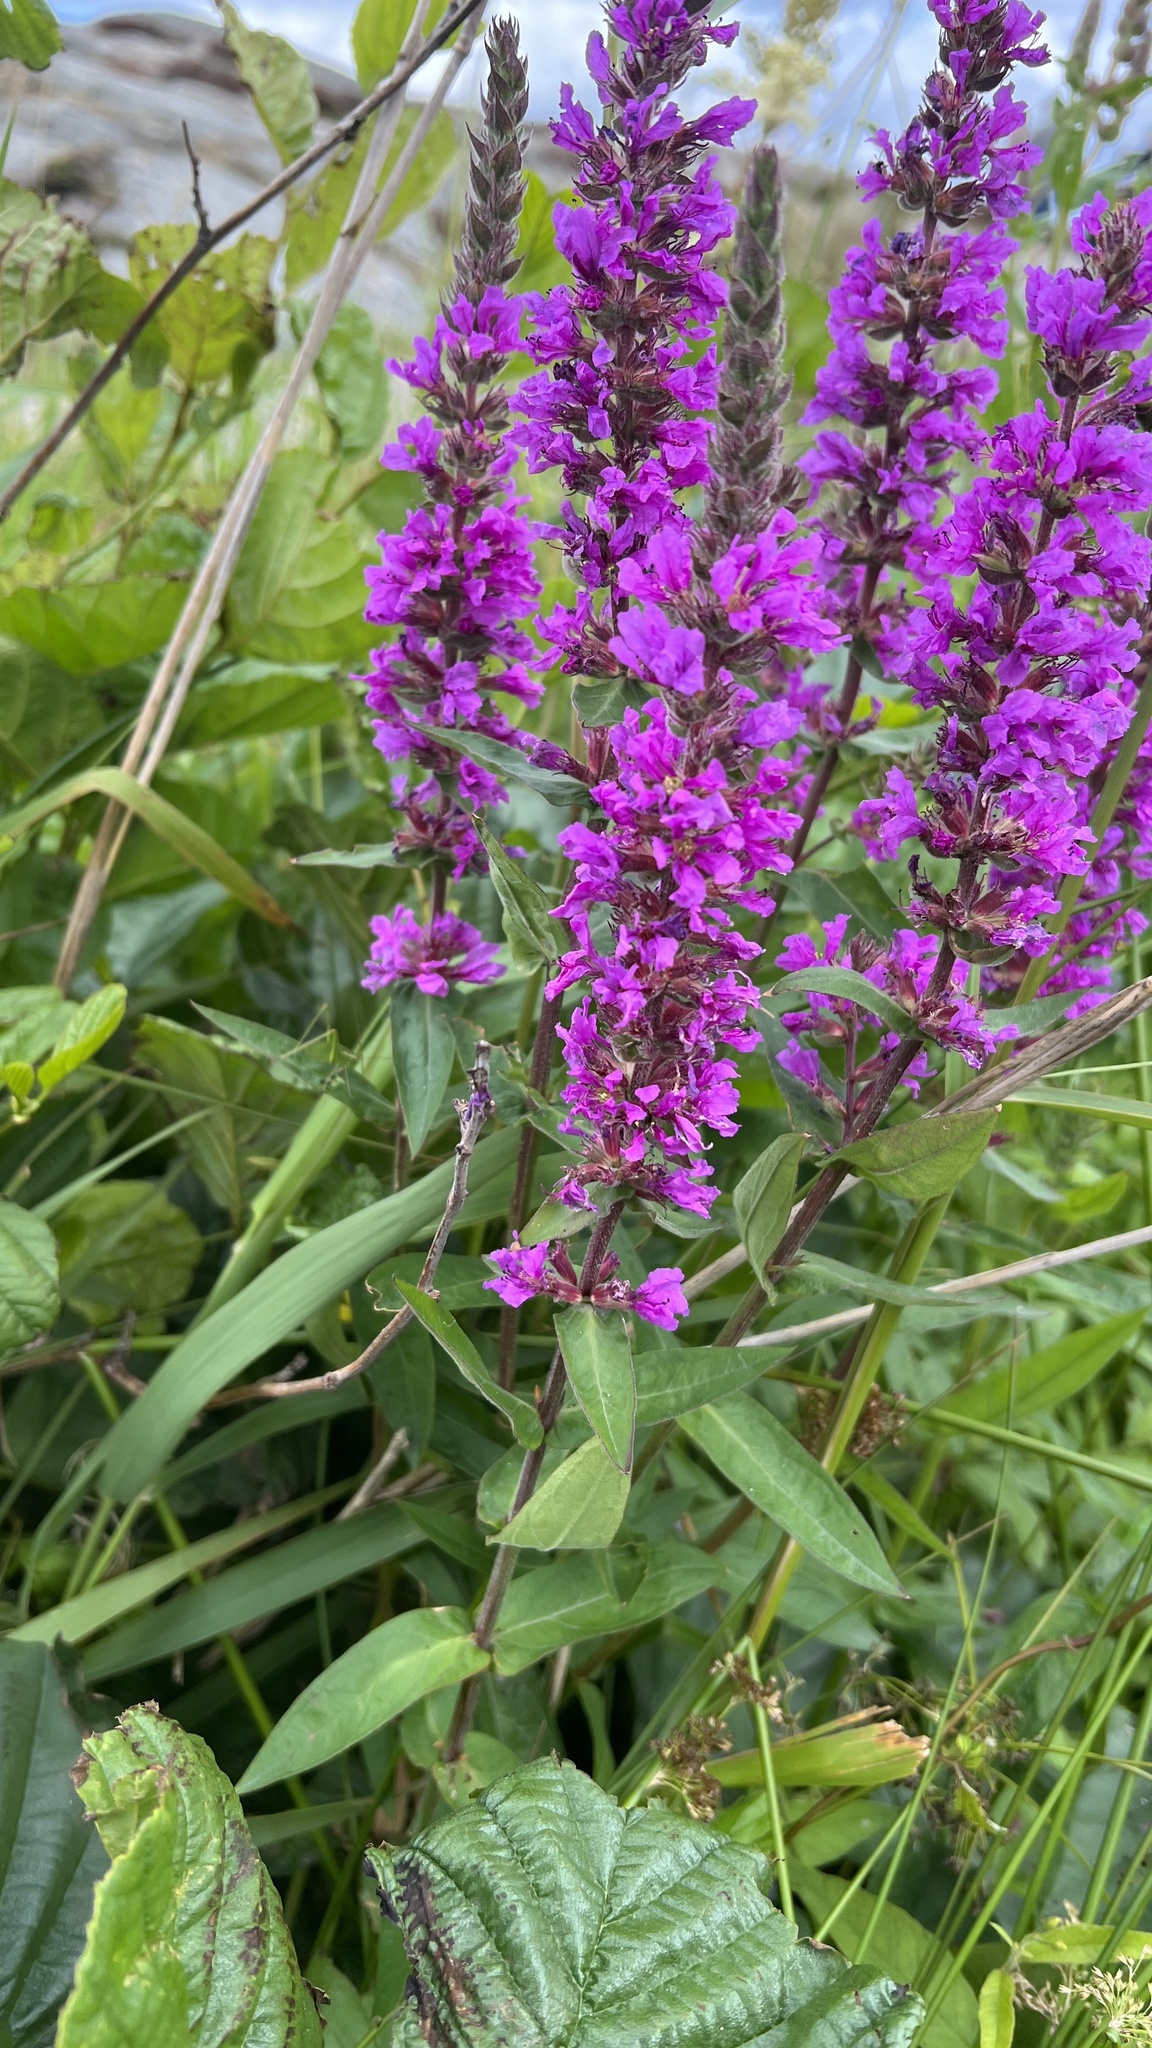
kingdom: Plantae
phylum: Tracheophyta
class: Magnoliopsida
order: Myrtales
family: Lythraceae
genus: Lythrum
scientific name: Lythrum salicaria
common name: Purple loosestrife
